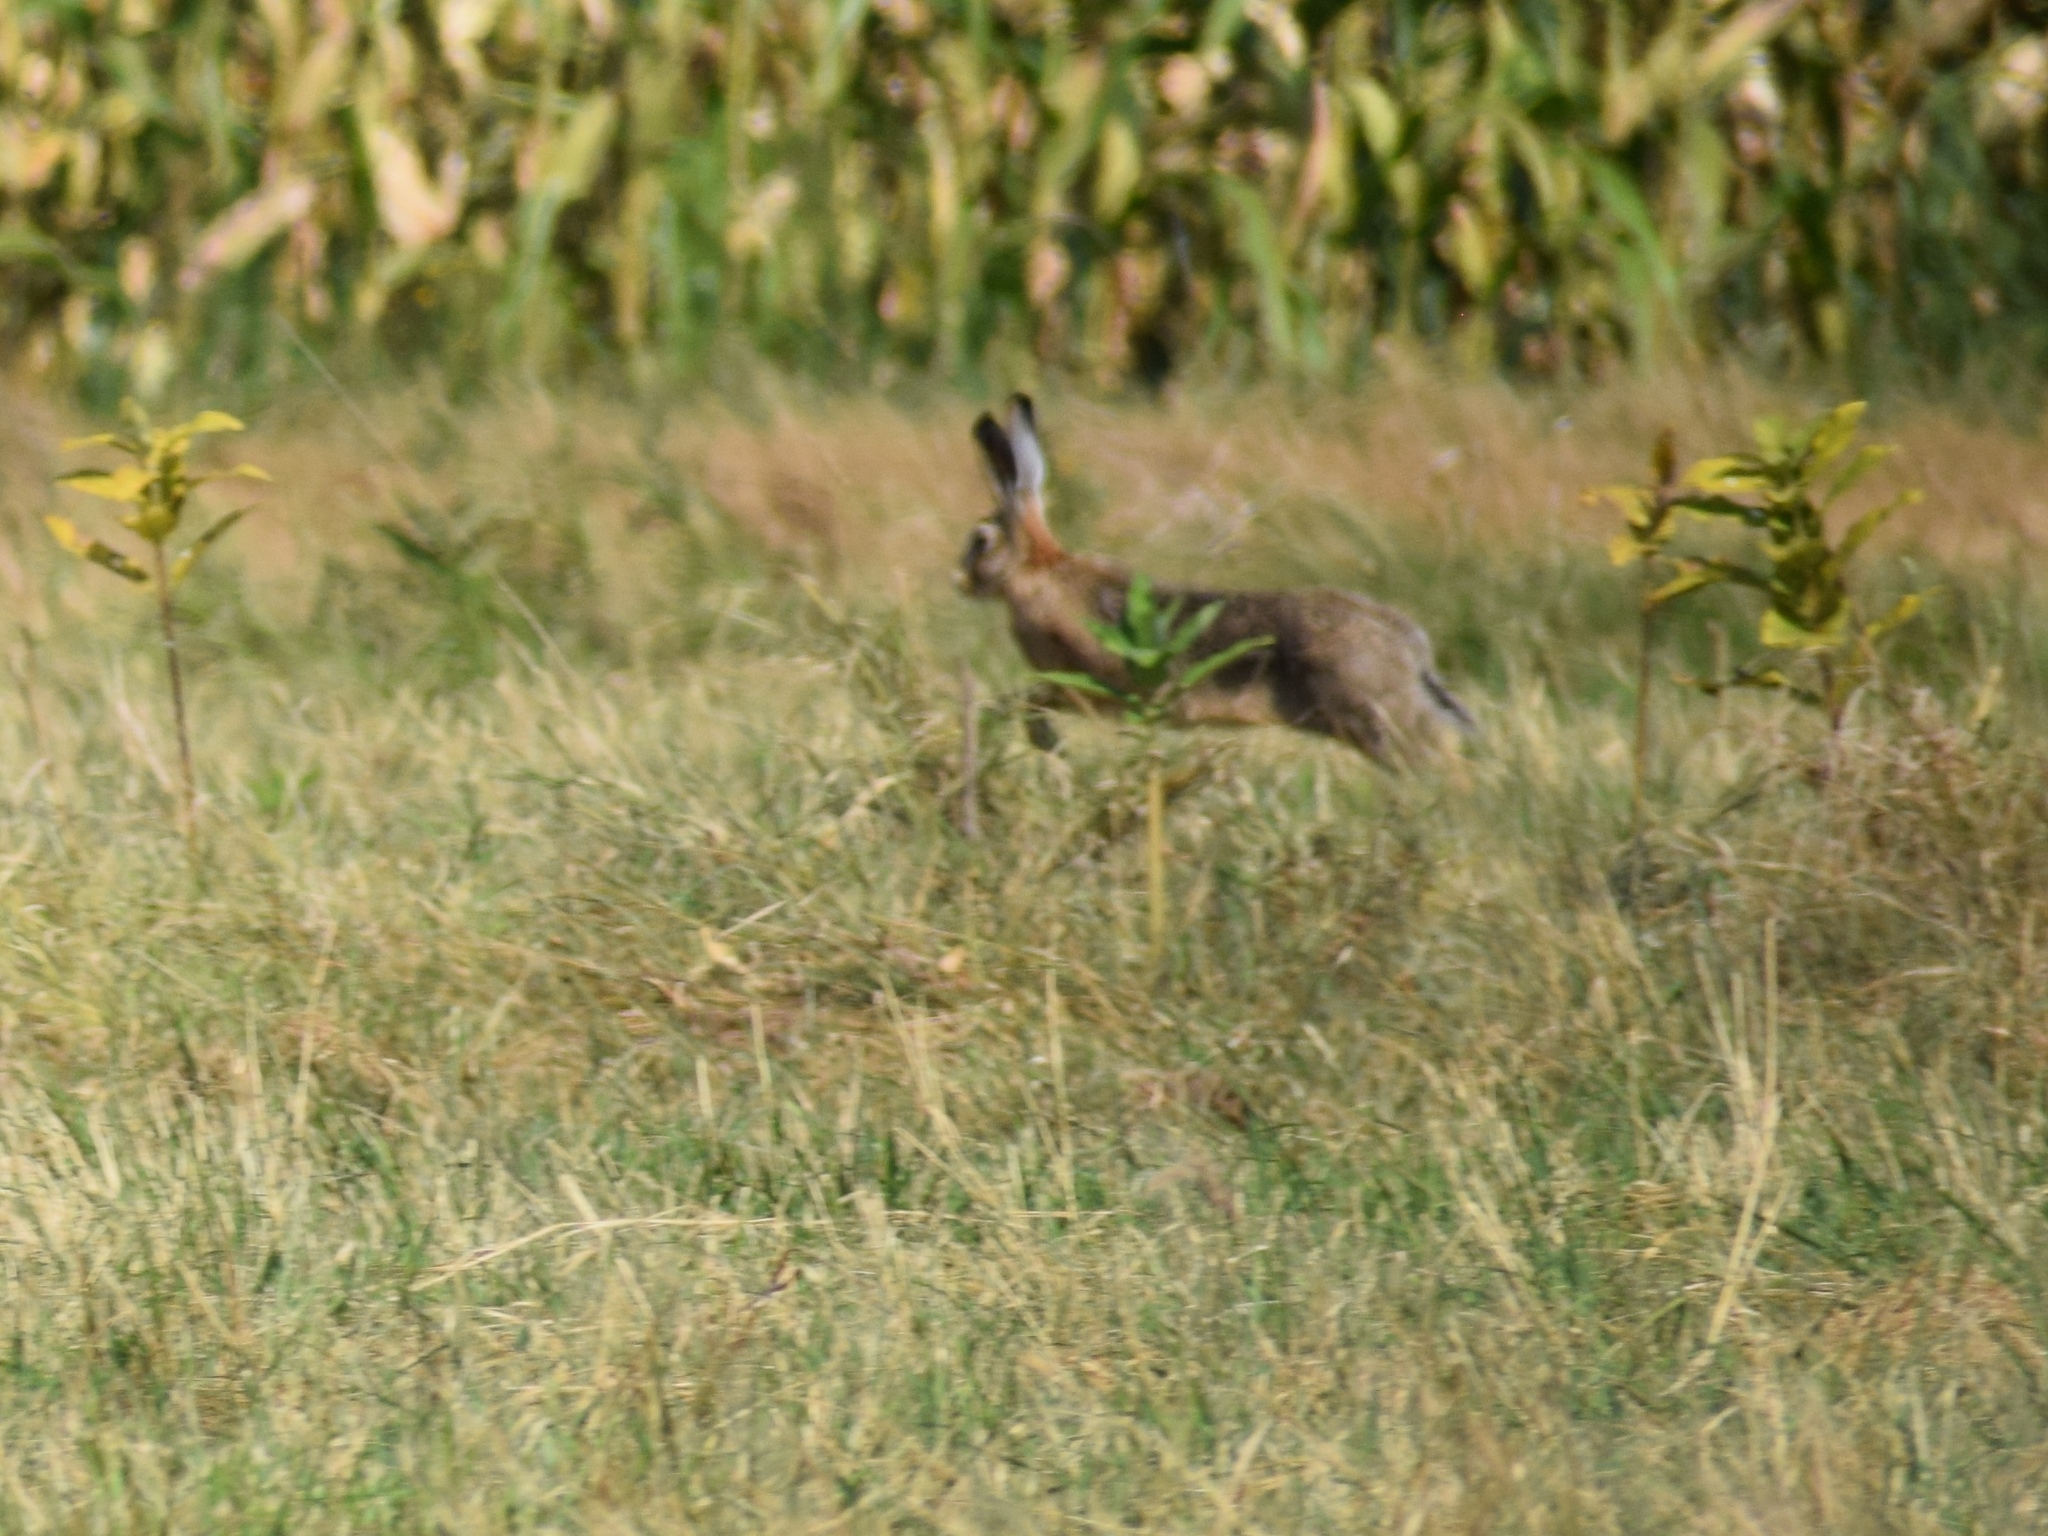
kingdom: Animalia
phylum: Chordata
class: Mammalia
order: Lagomorpha
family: Leporidae
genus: Lepus
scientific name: Lepus europaeus
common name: European hare
